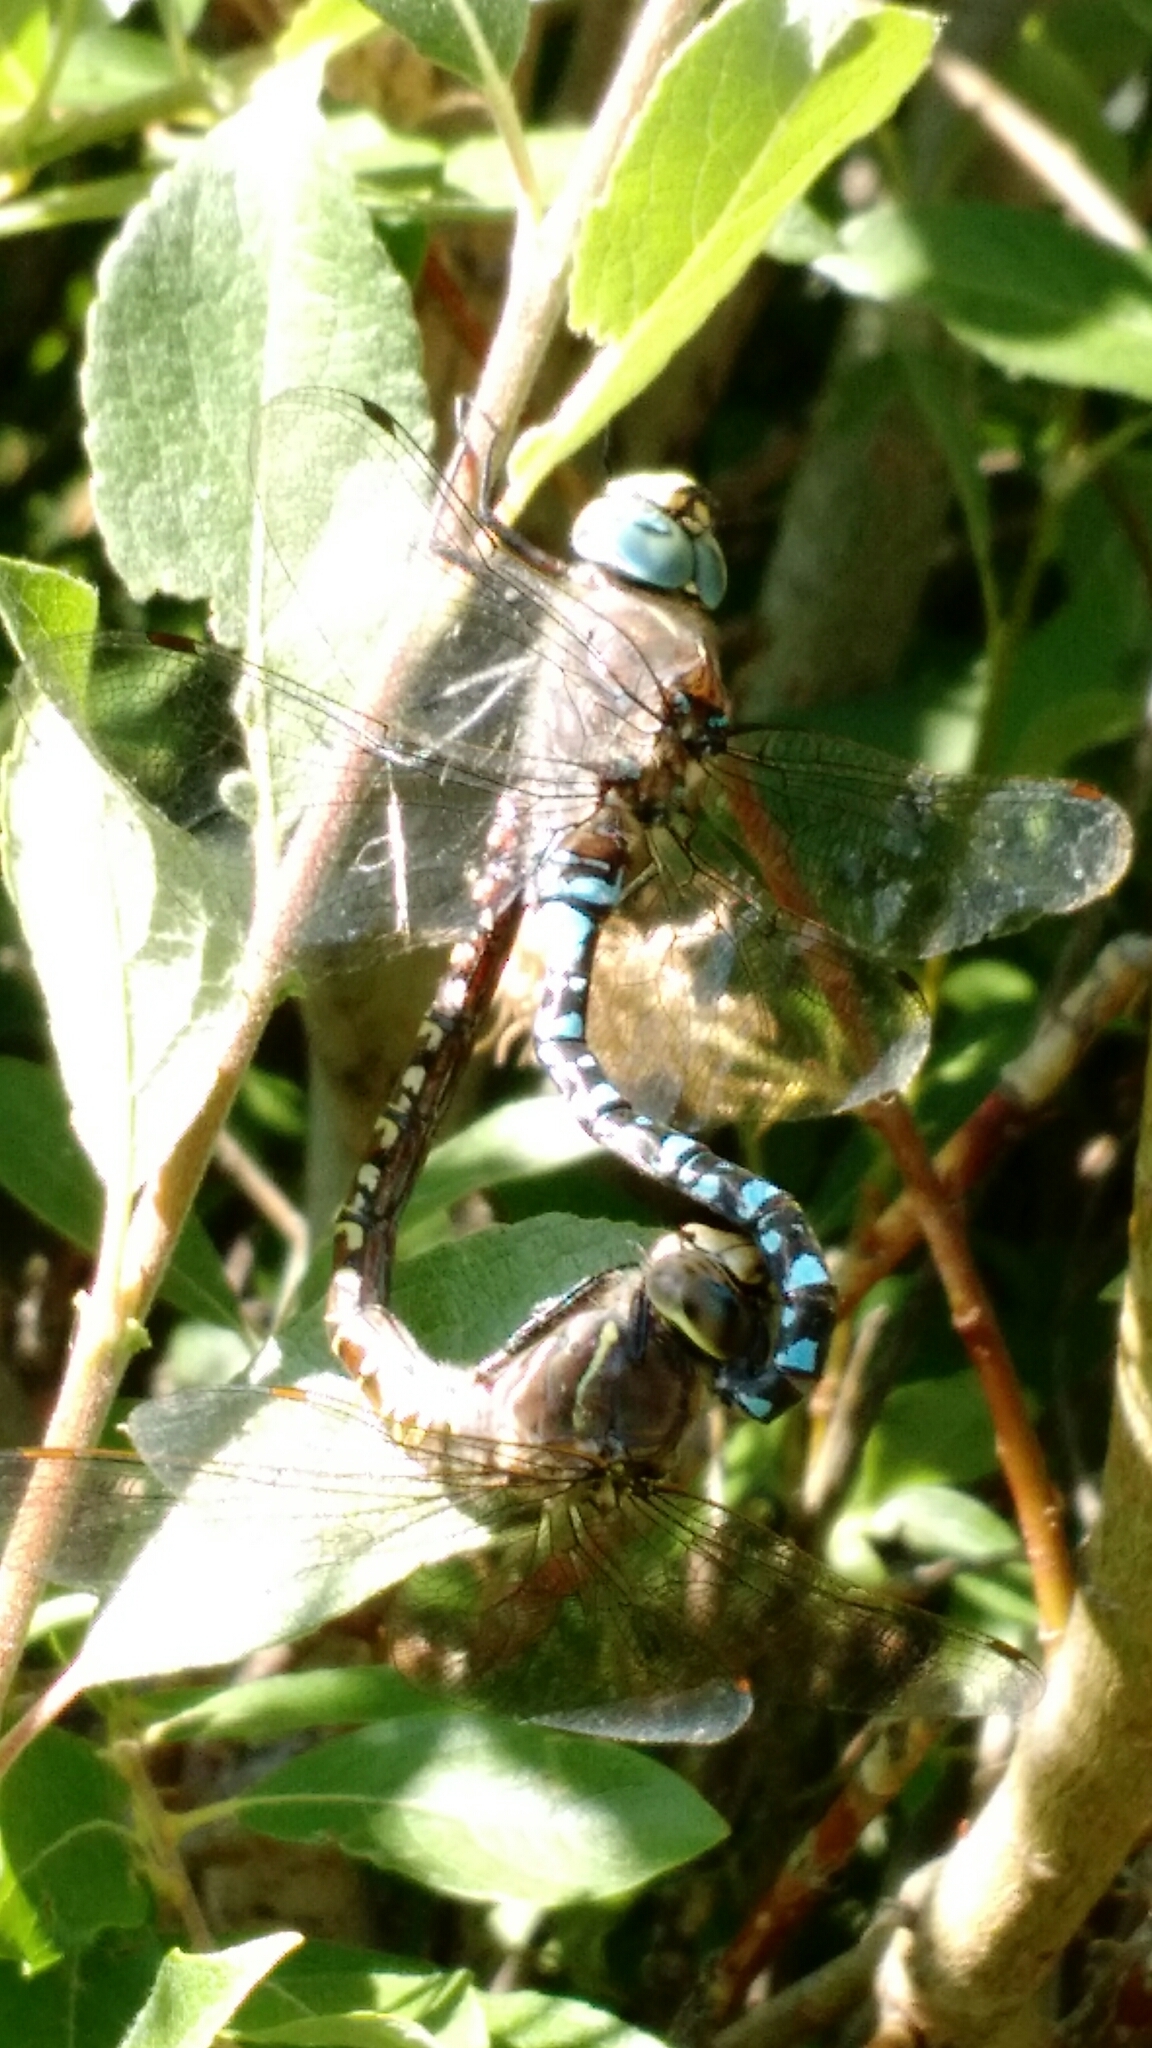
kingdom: Animalia
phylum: Arthropoda
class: Insecta
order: Odonata
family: Aeshnidae
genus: Aeshna
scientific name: Aeshna interrupta
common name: Variable darner
